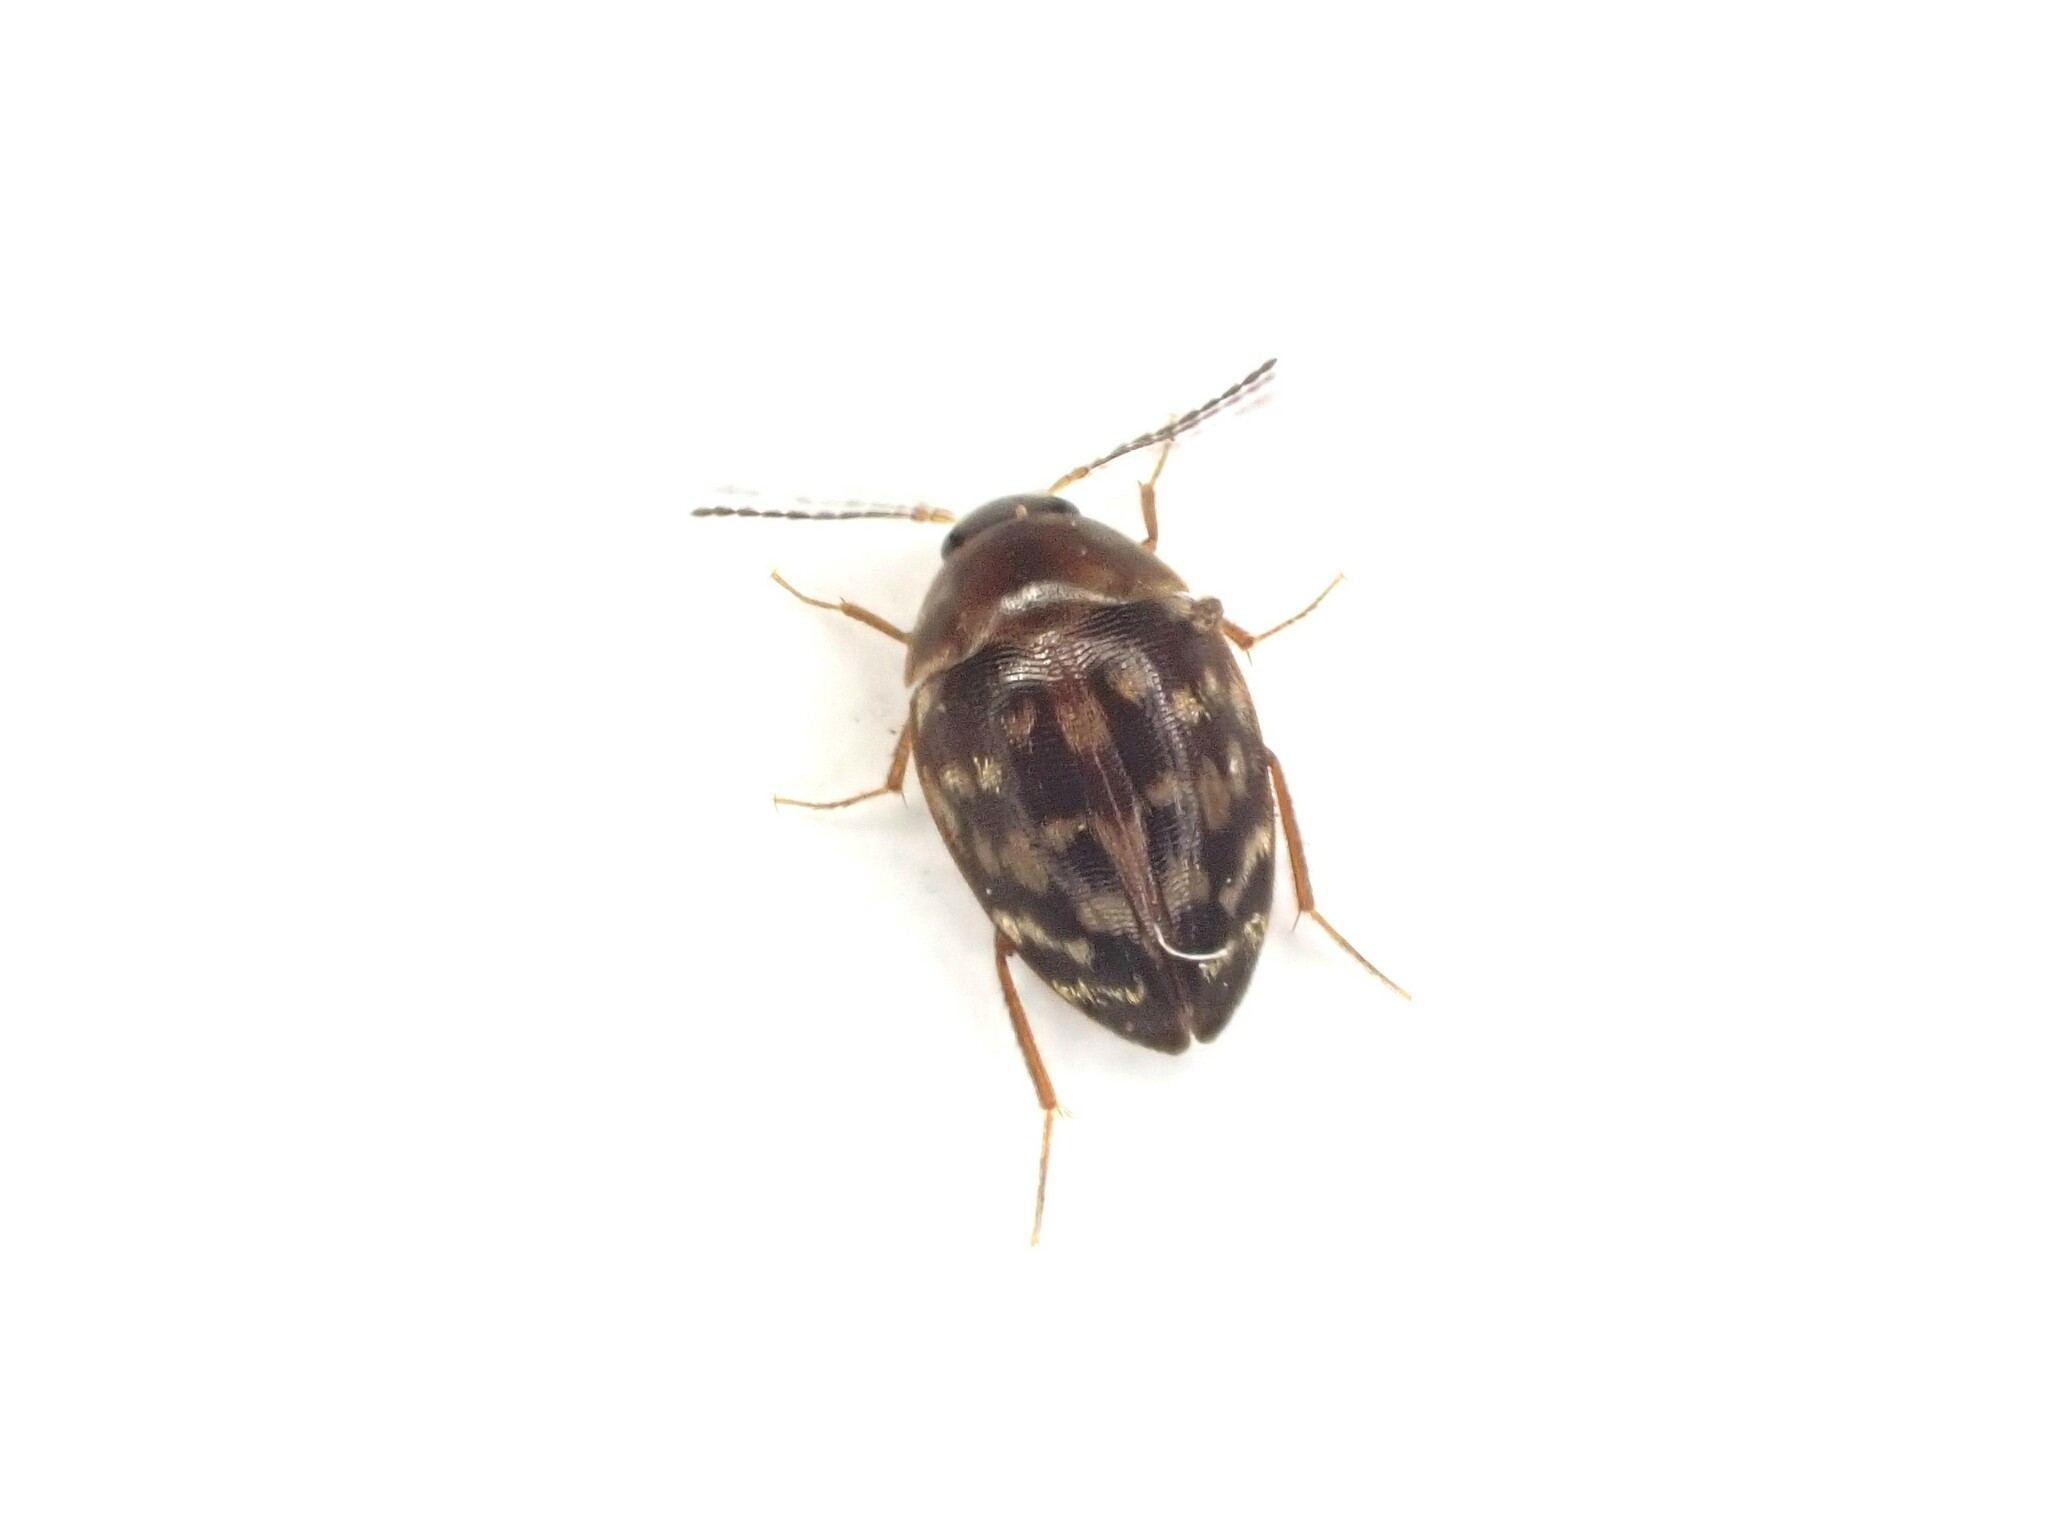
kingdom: Animalia
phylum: Arthropoda
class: Insecta
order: Coleoptera
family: Leiodidae
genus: Zearagytodes
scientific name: Zearagytodes maculifer
